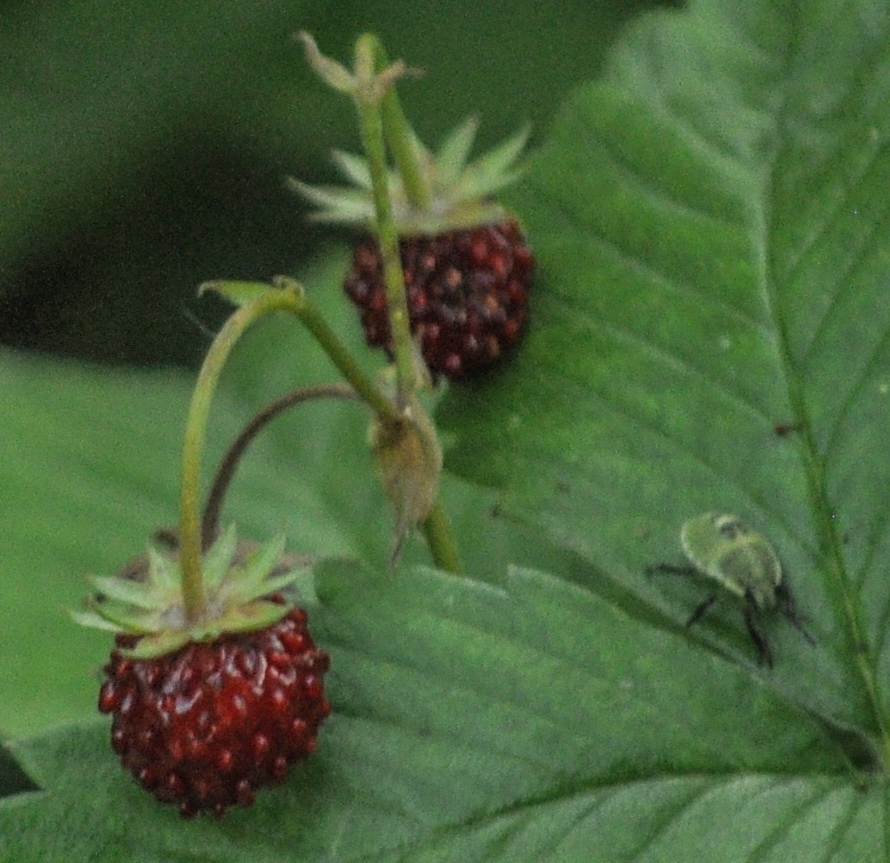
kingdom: Plantae
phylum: Tracheophyta
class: Magnoliopsida
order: Rosales
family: Rosaceae
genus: Fragaria
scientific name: Fragaria vesca
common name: Wild strawberry
